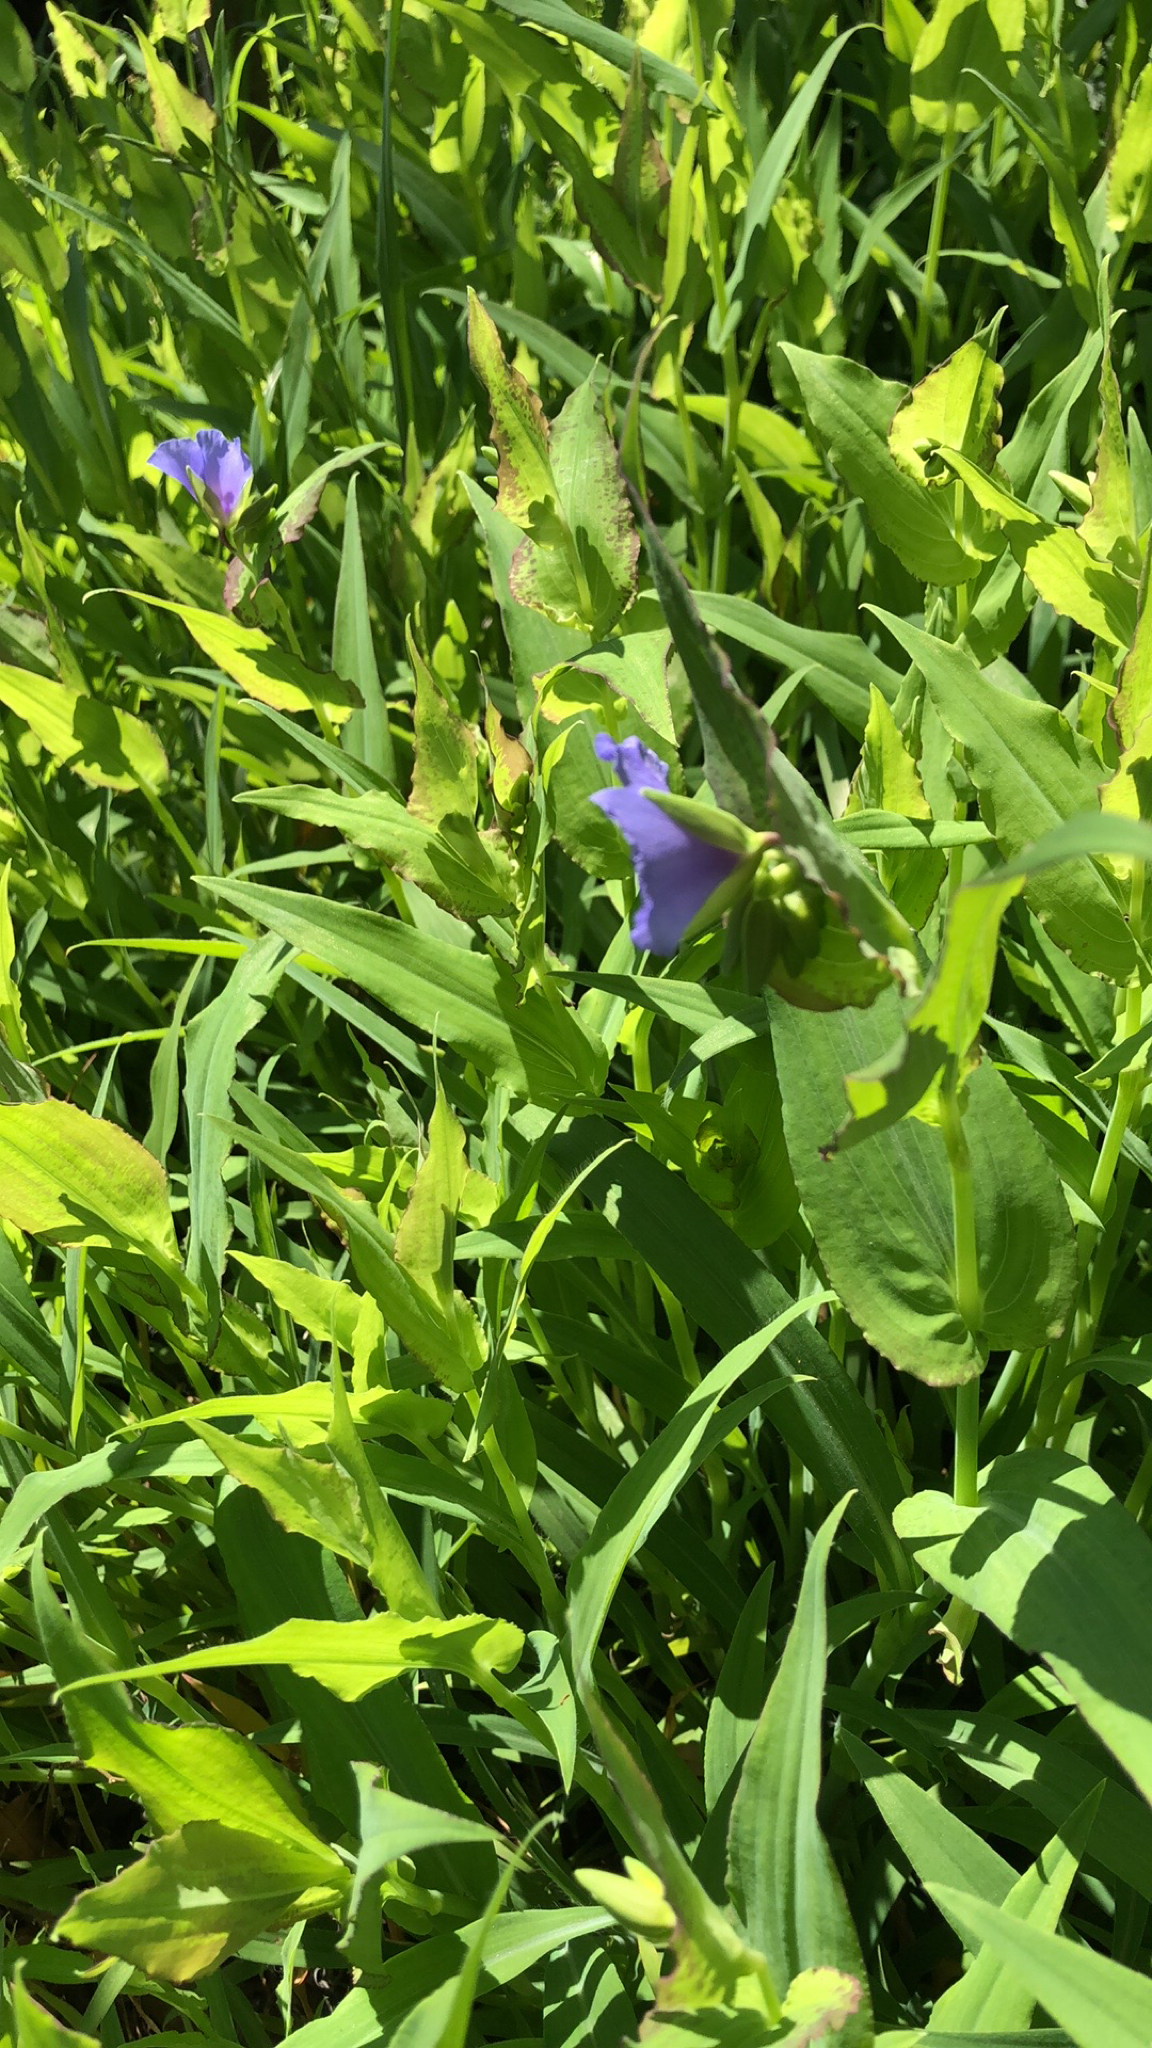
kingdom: Plantae
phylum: Tracheophyta
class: Liliopsida
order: Commelinales
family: Commelinaceae
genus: Tinantia
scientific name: Tinantia anomala
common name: False dayflower
